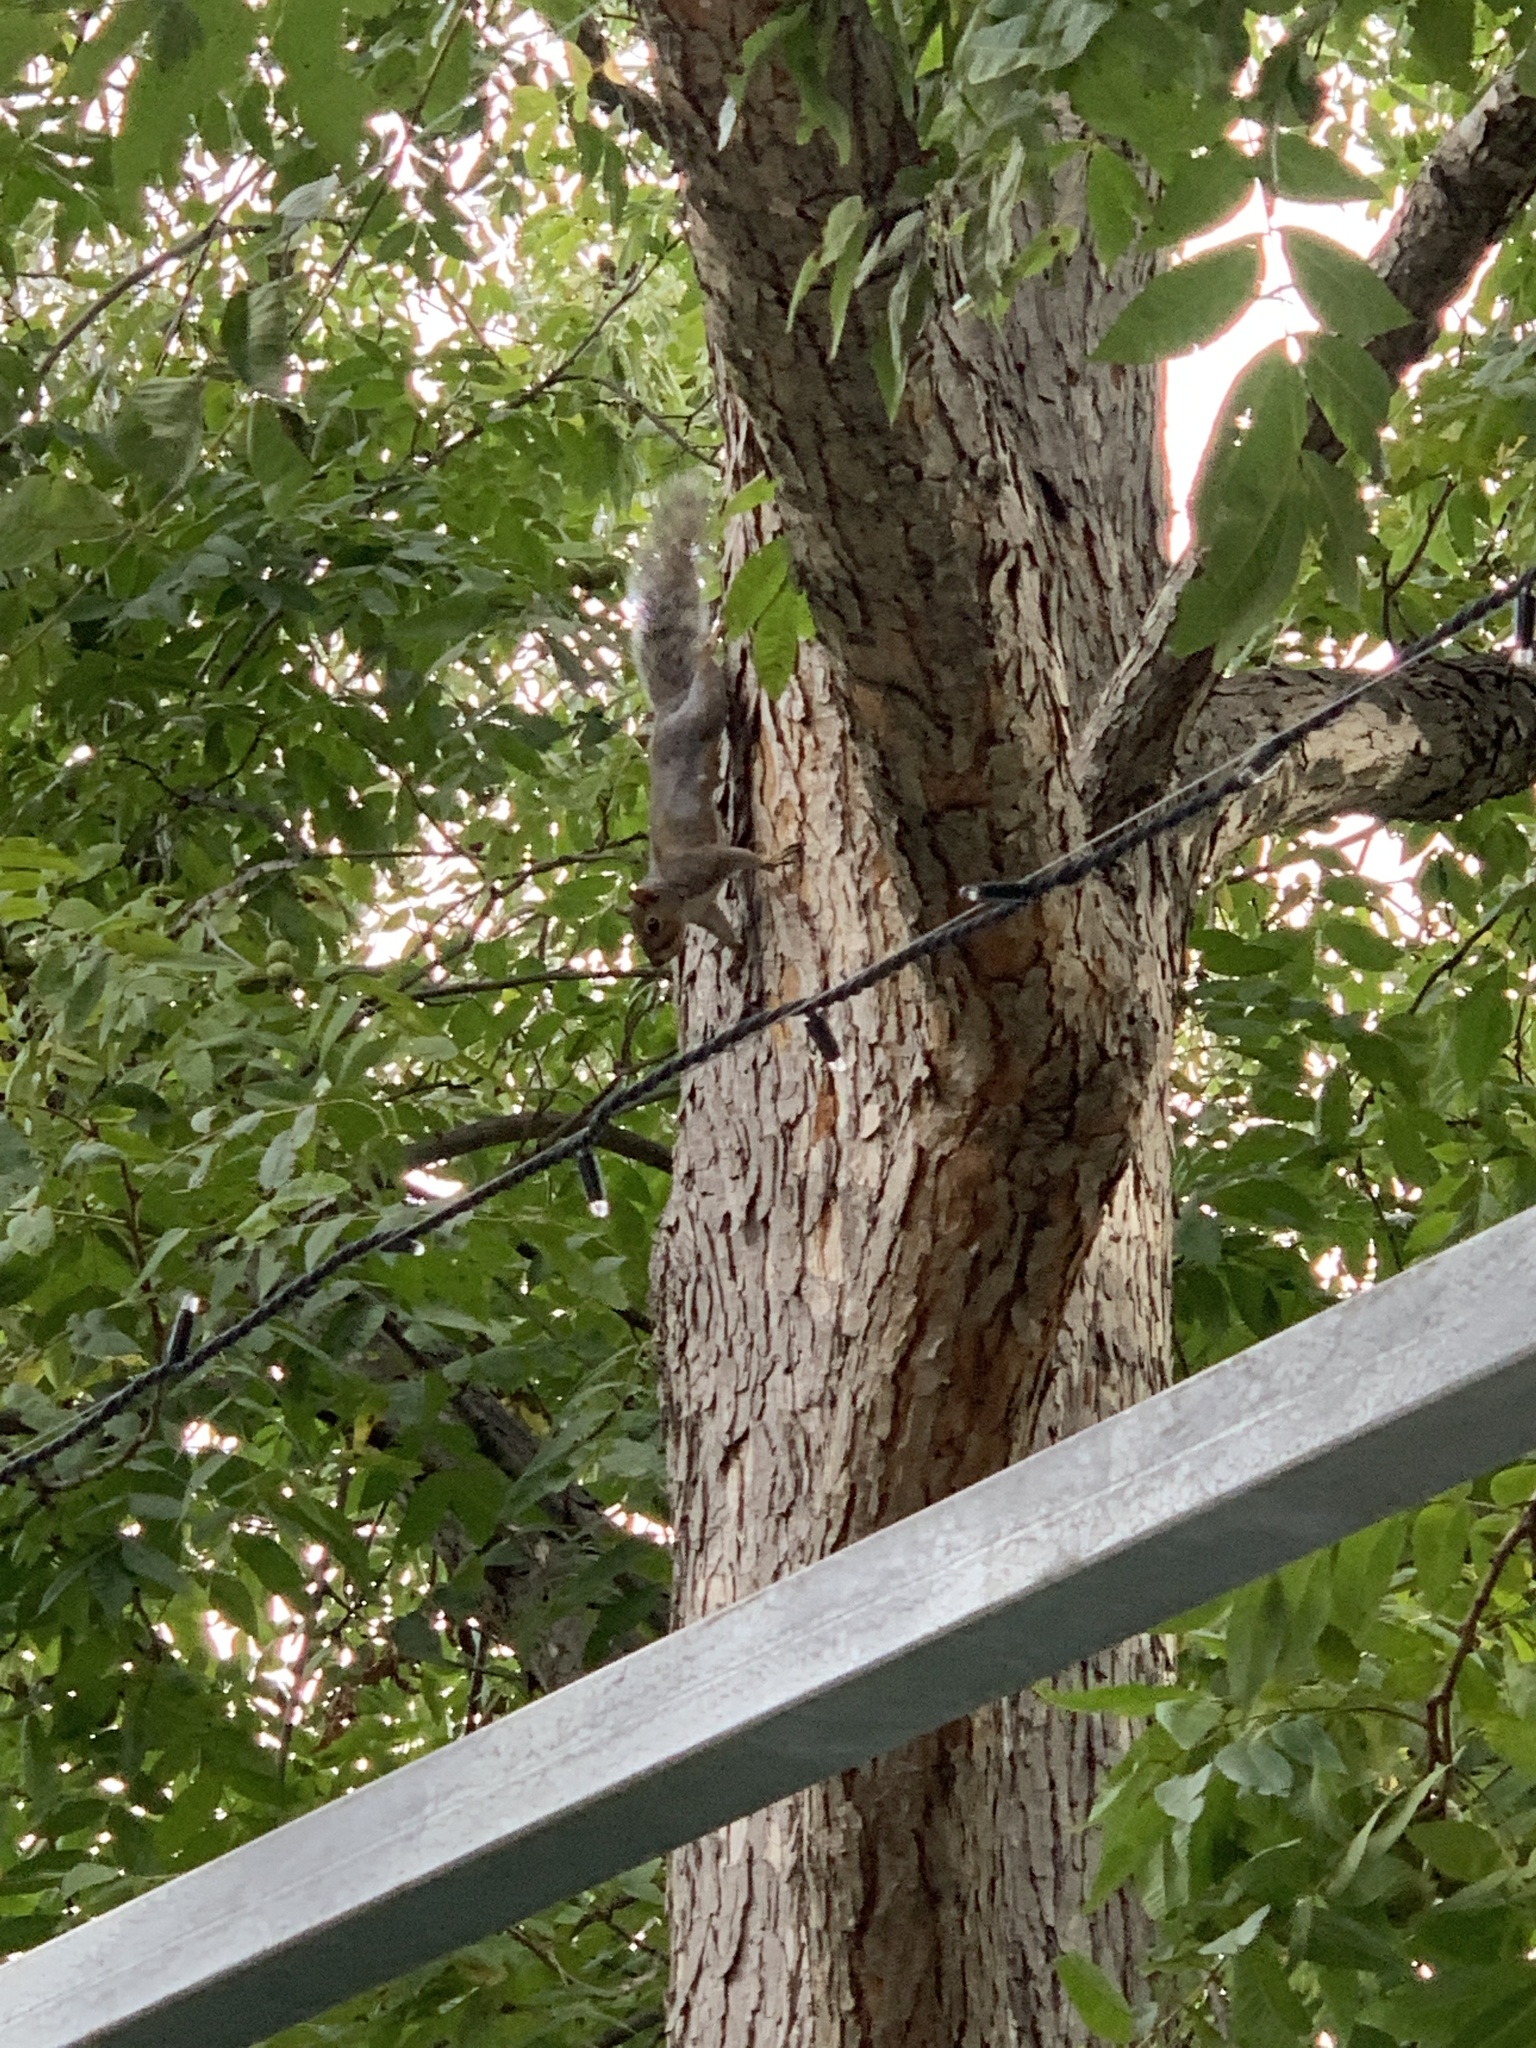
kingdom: Animalia
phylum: Chordata
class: Mammalia
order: Rodentia
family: Sciuridae
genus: Sciurus
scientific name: Sciurus carolinensis
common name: Eastern gray squirrel
